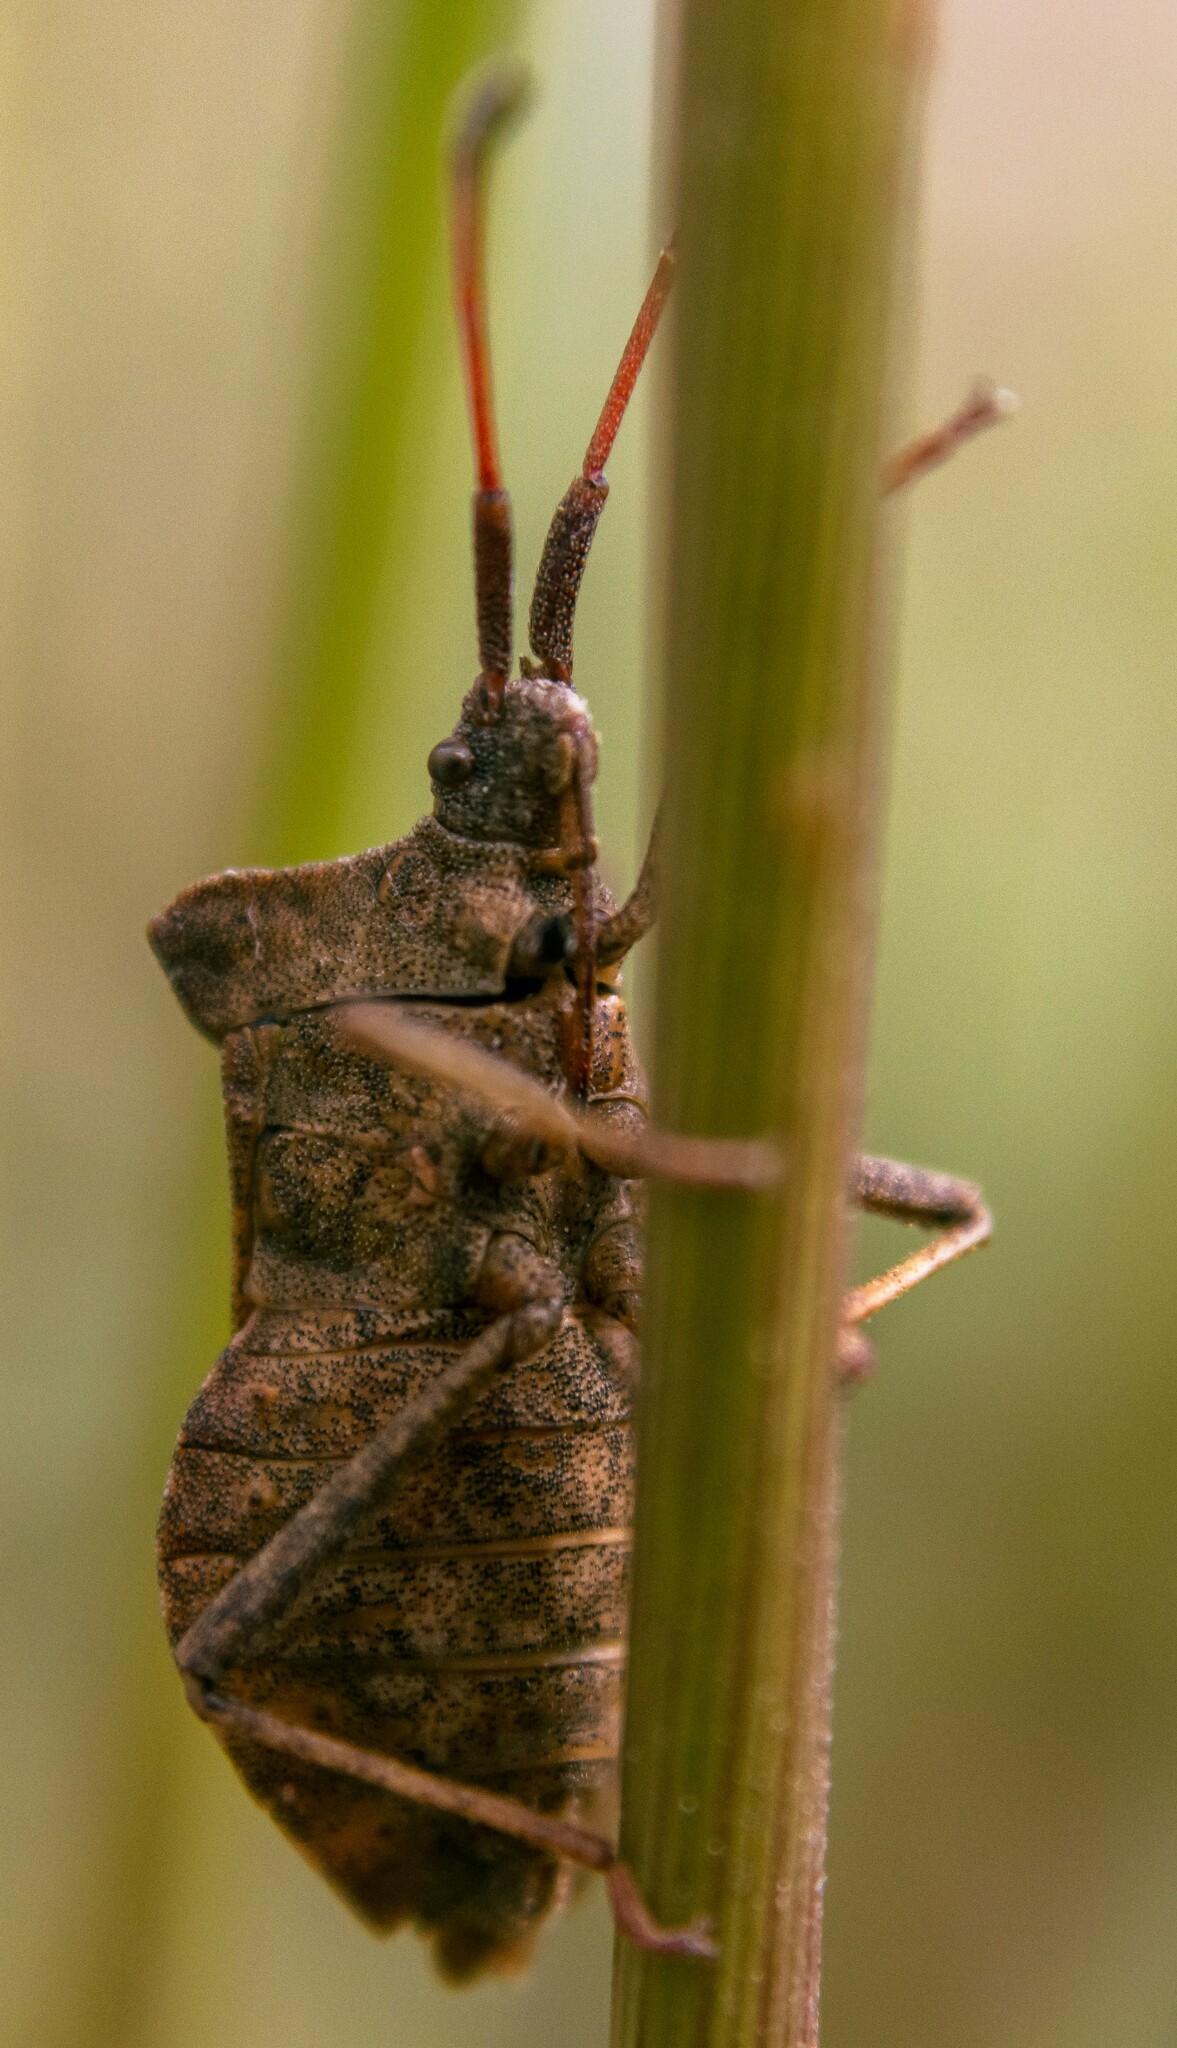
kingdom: Animalia
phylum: Arthropoda
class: Insecta
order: Hemiptera
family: Coreidae
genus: Coreus
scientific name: Coreus marginatus
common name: Dock bug
